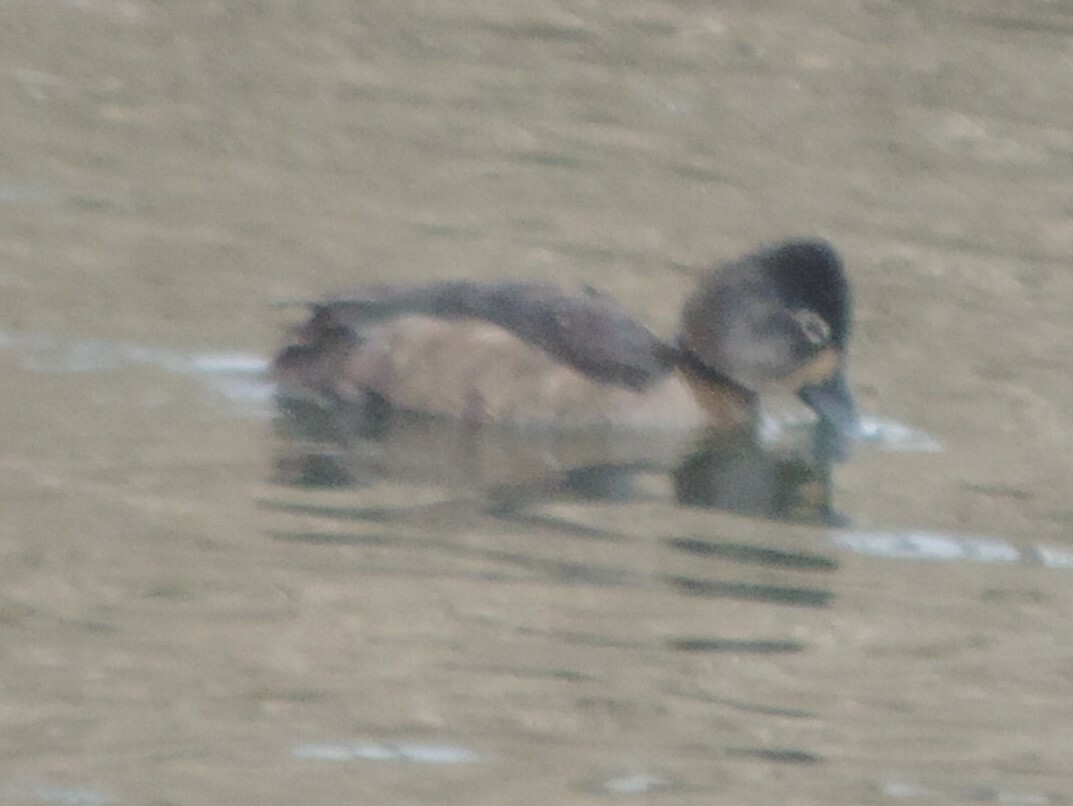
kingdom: Animalia
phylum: Chordata
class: Aves
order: Anseriformes
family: Anatidae
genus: Aythya
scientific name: Aythya collaris
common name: Ring-necked duck
